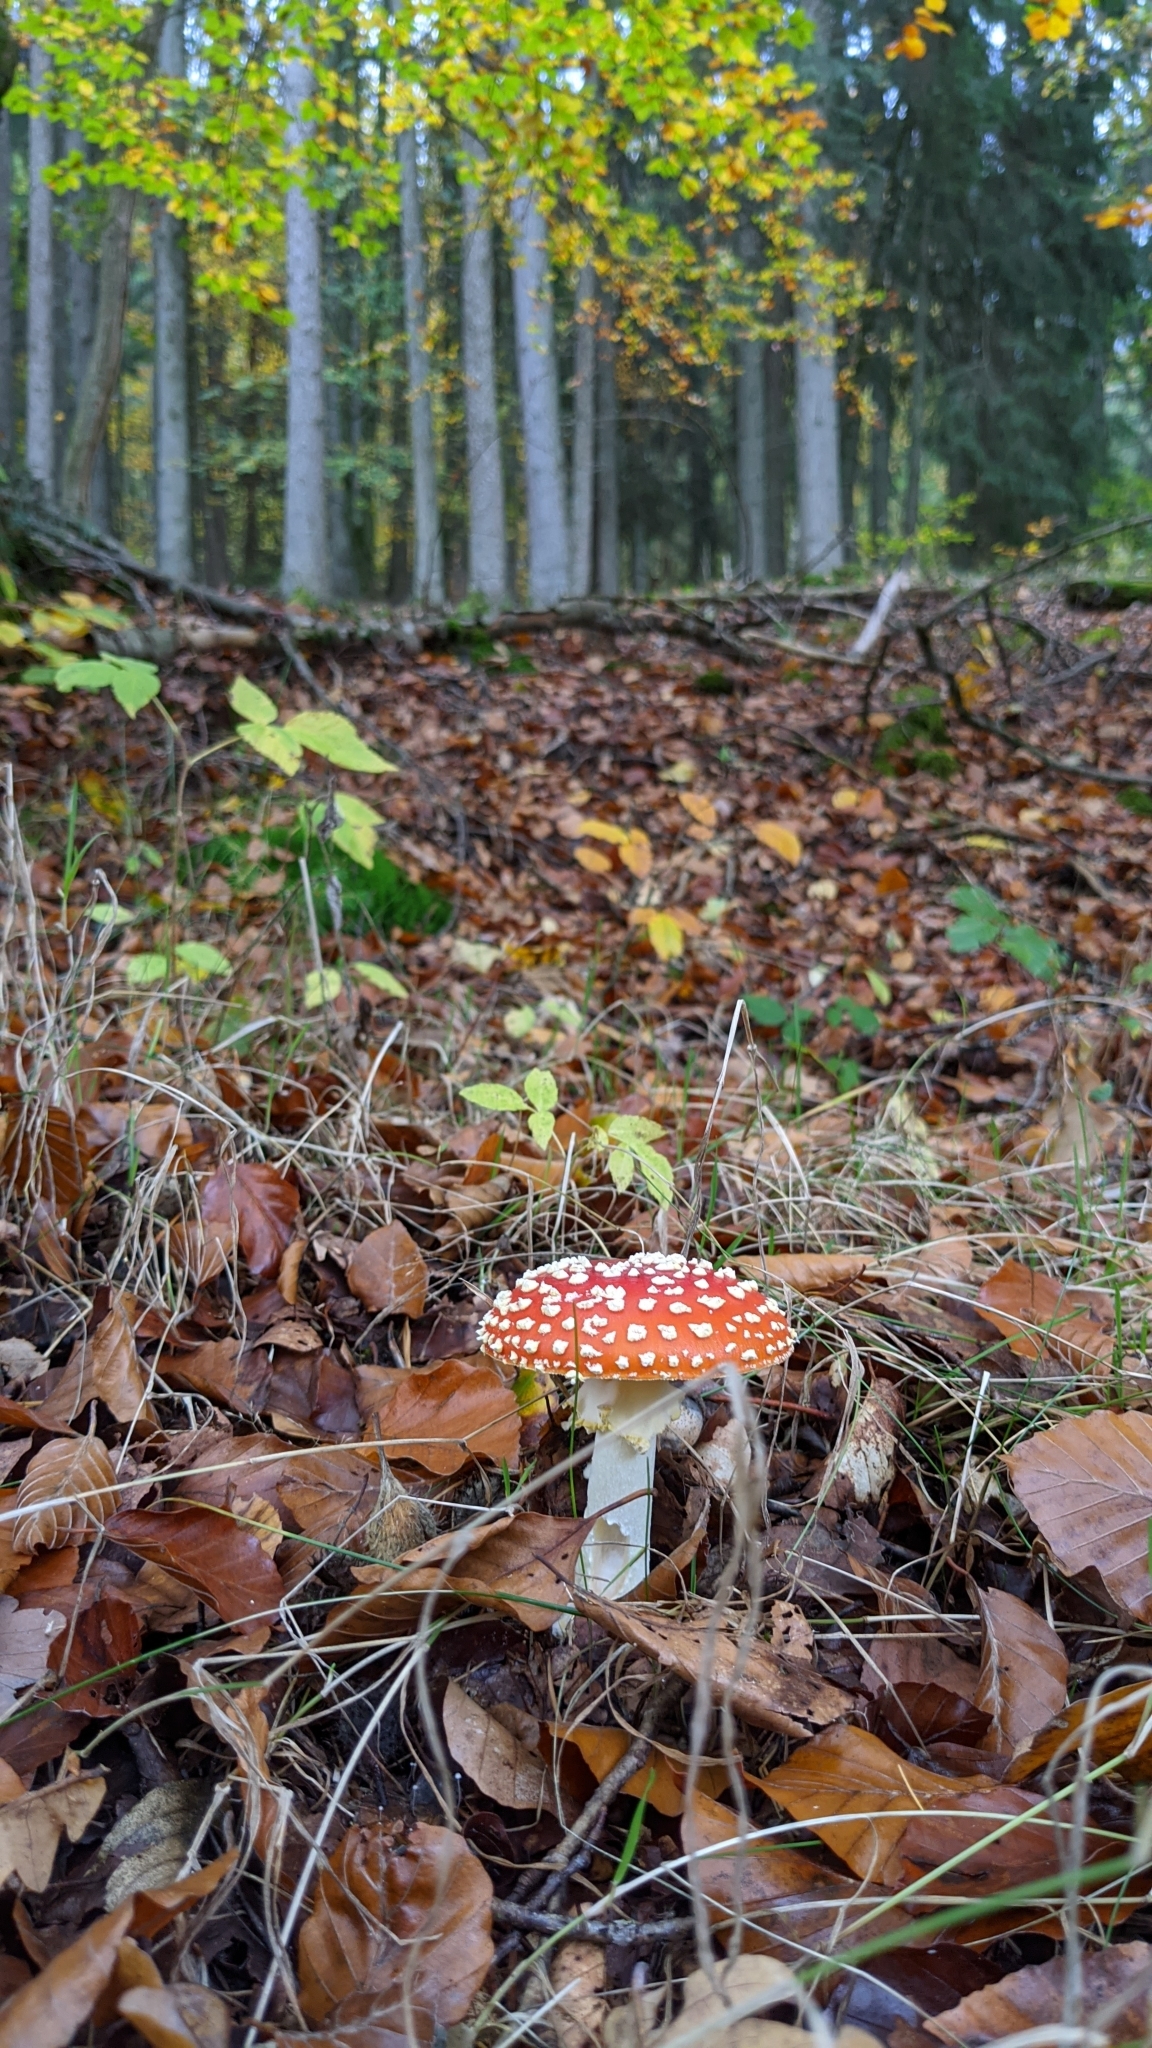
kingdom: Fungi
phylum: Basidiomycota
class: Agaricomycetes
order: Agaricales
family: Amanitaceae
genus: Amanita
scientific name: Amanita muscaria
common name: Fly agaric
